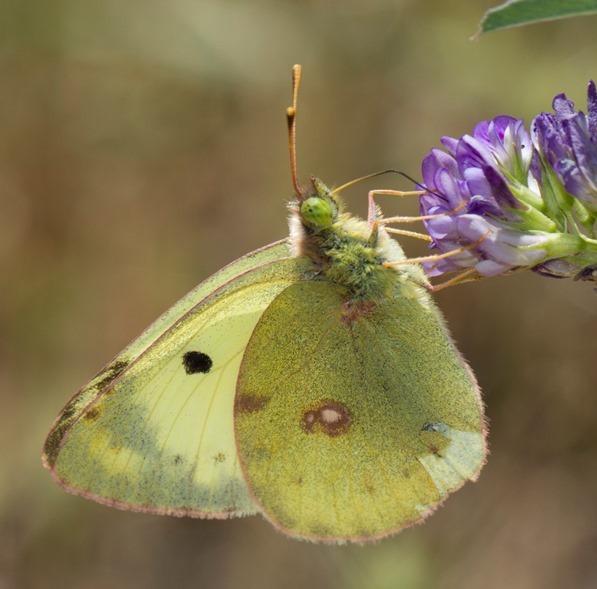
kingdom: Animalia
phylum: Arthropoda
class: Insecta
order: Lepidoptera
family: Pieridae
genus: Colias
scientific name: Colias alfacariensis
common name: Berger's clouded yellow
